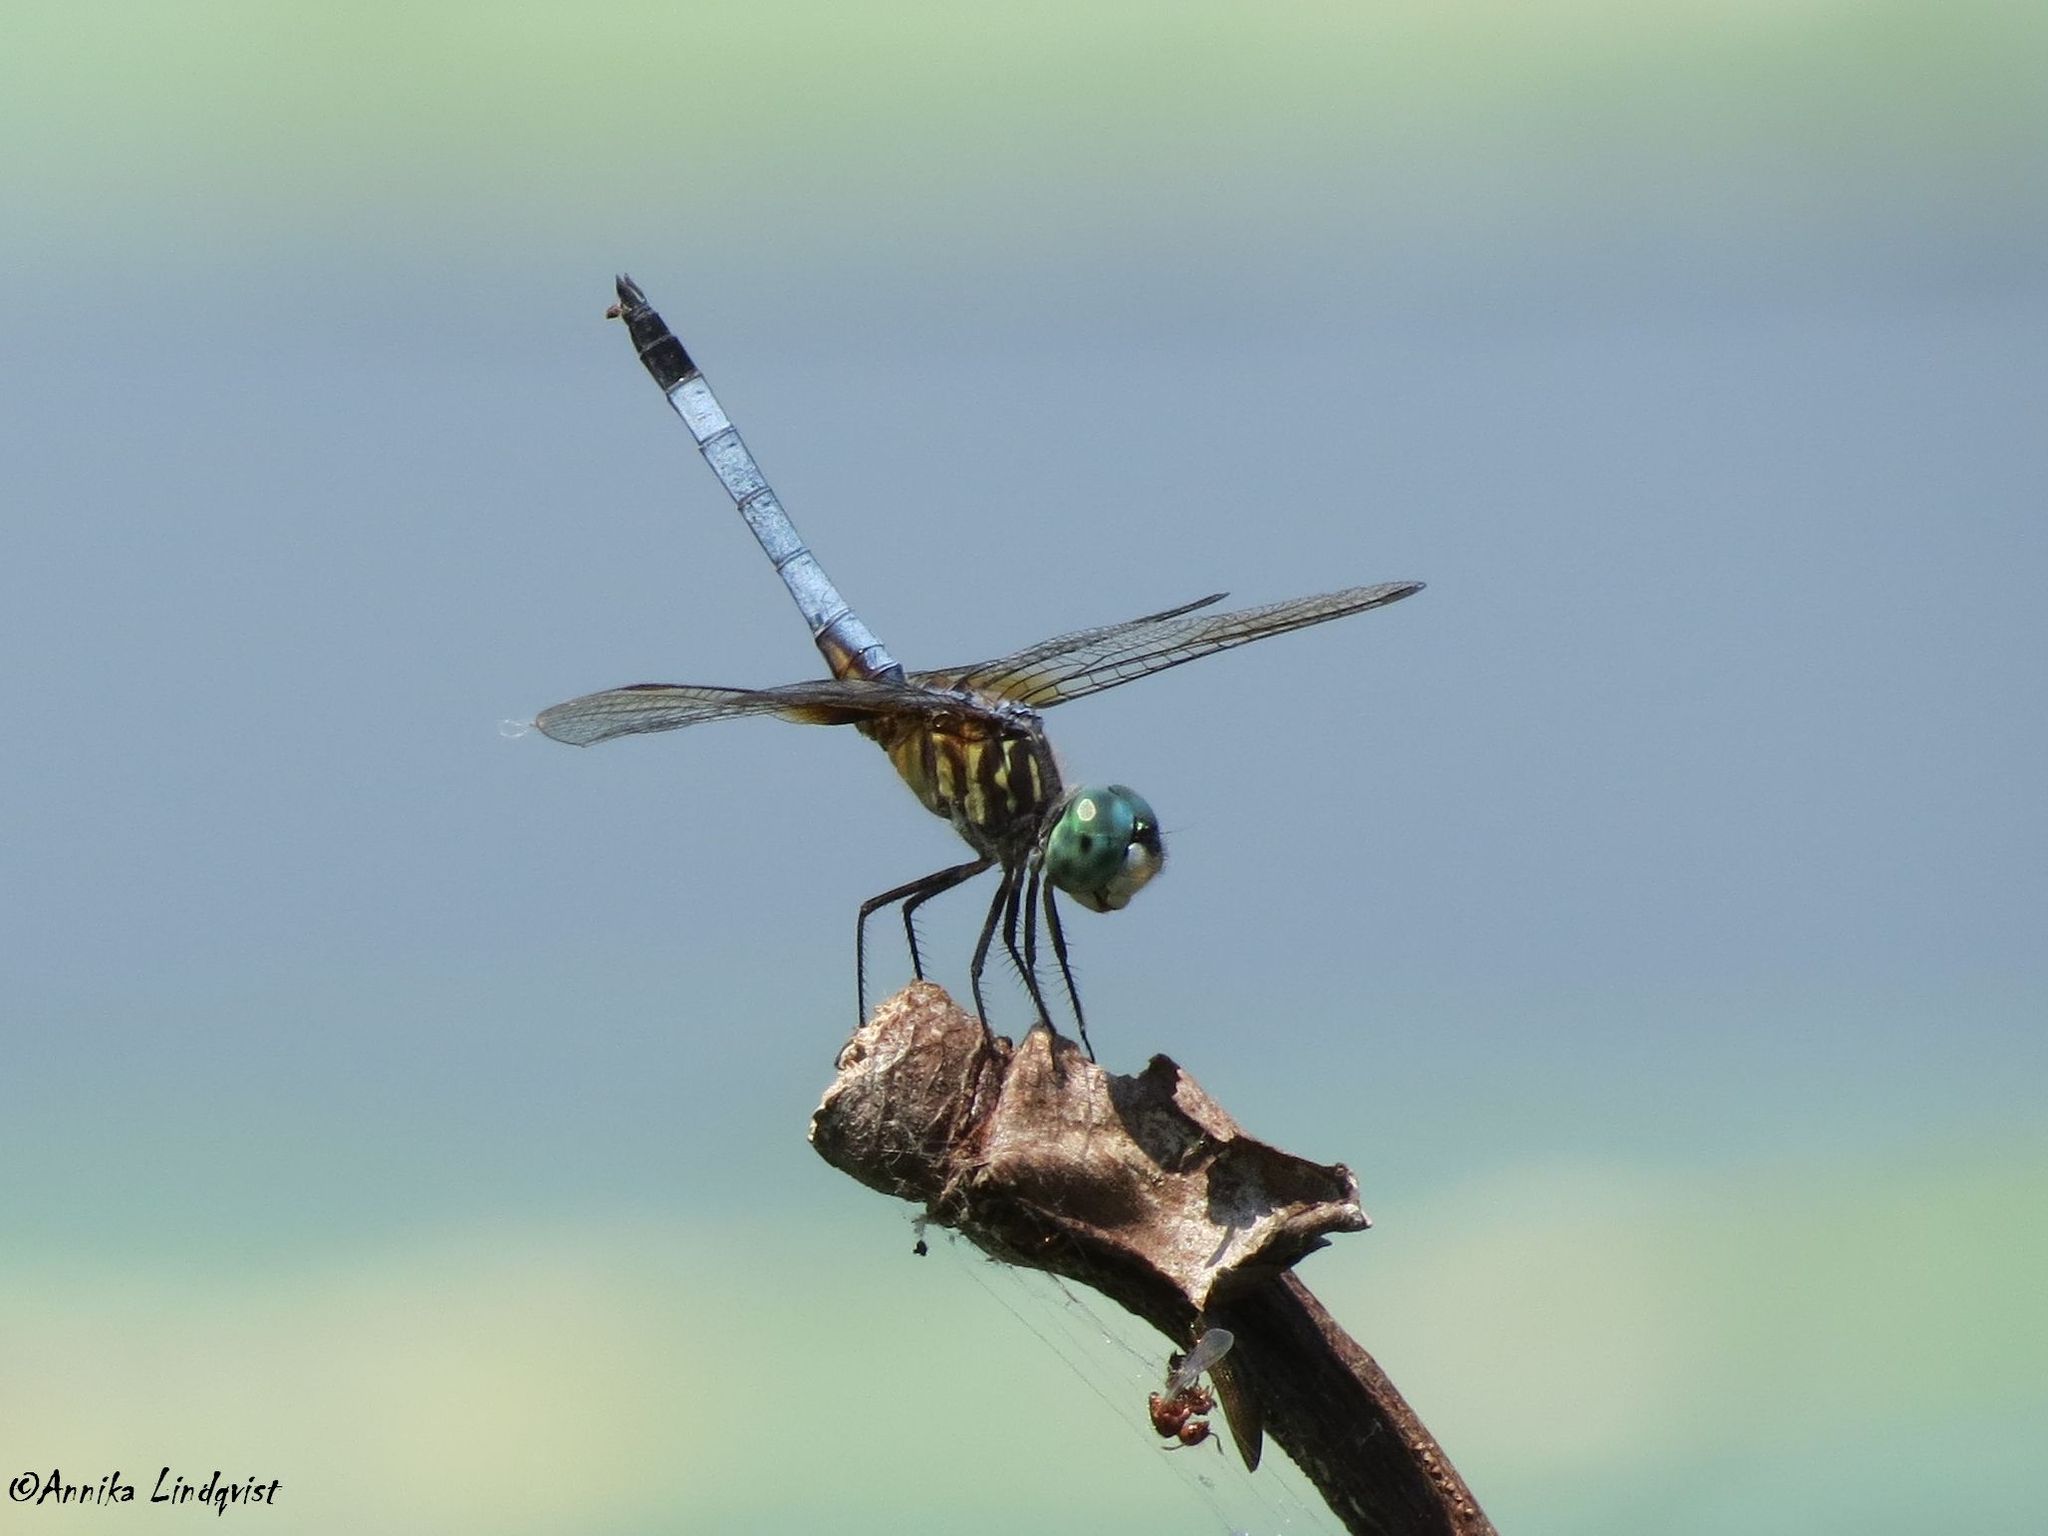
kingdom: Animalia
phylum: Arthropoda
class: Insecta
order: Odonata
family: Libellulidae
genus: Pachydiplax
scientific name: Pachydiplax longipennis
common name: Blue dasher
